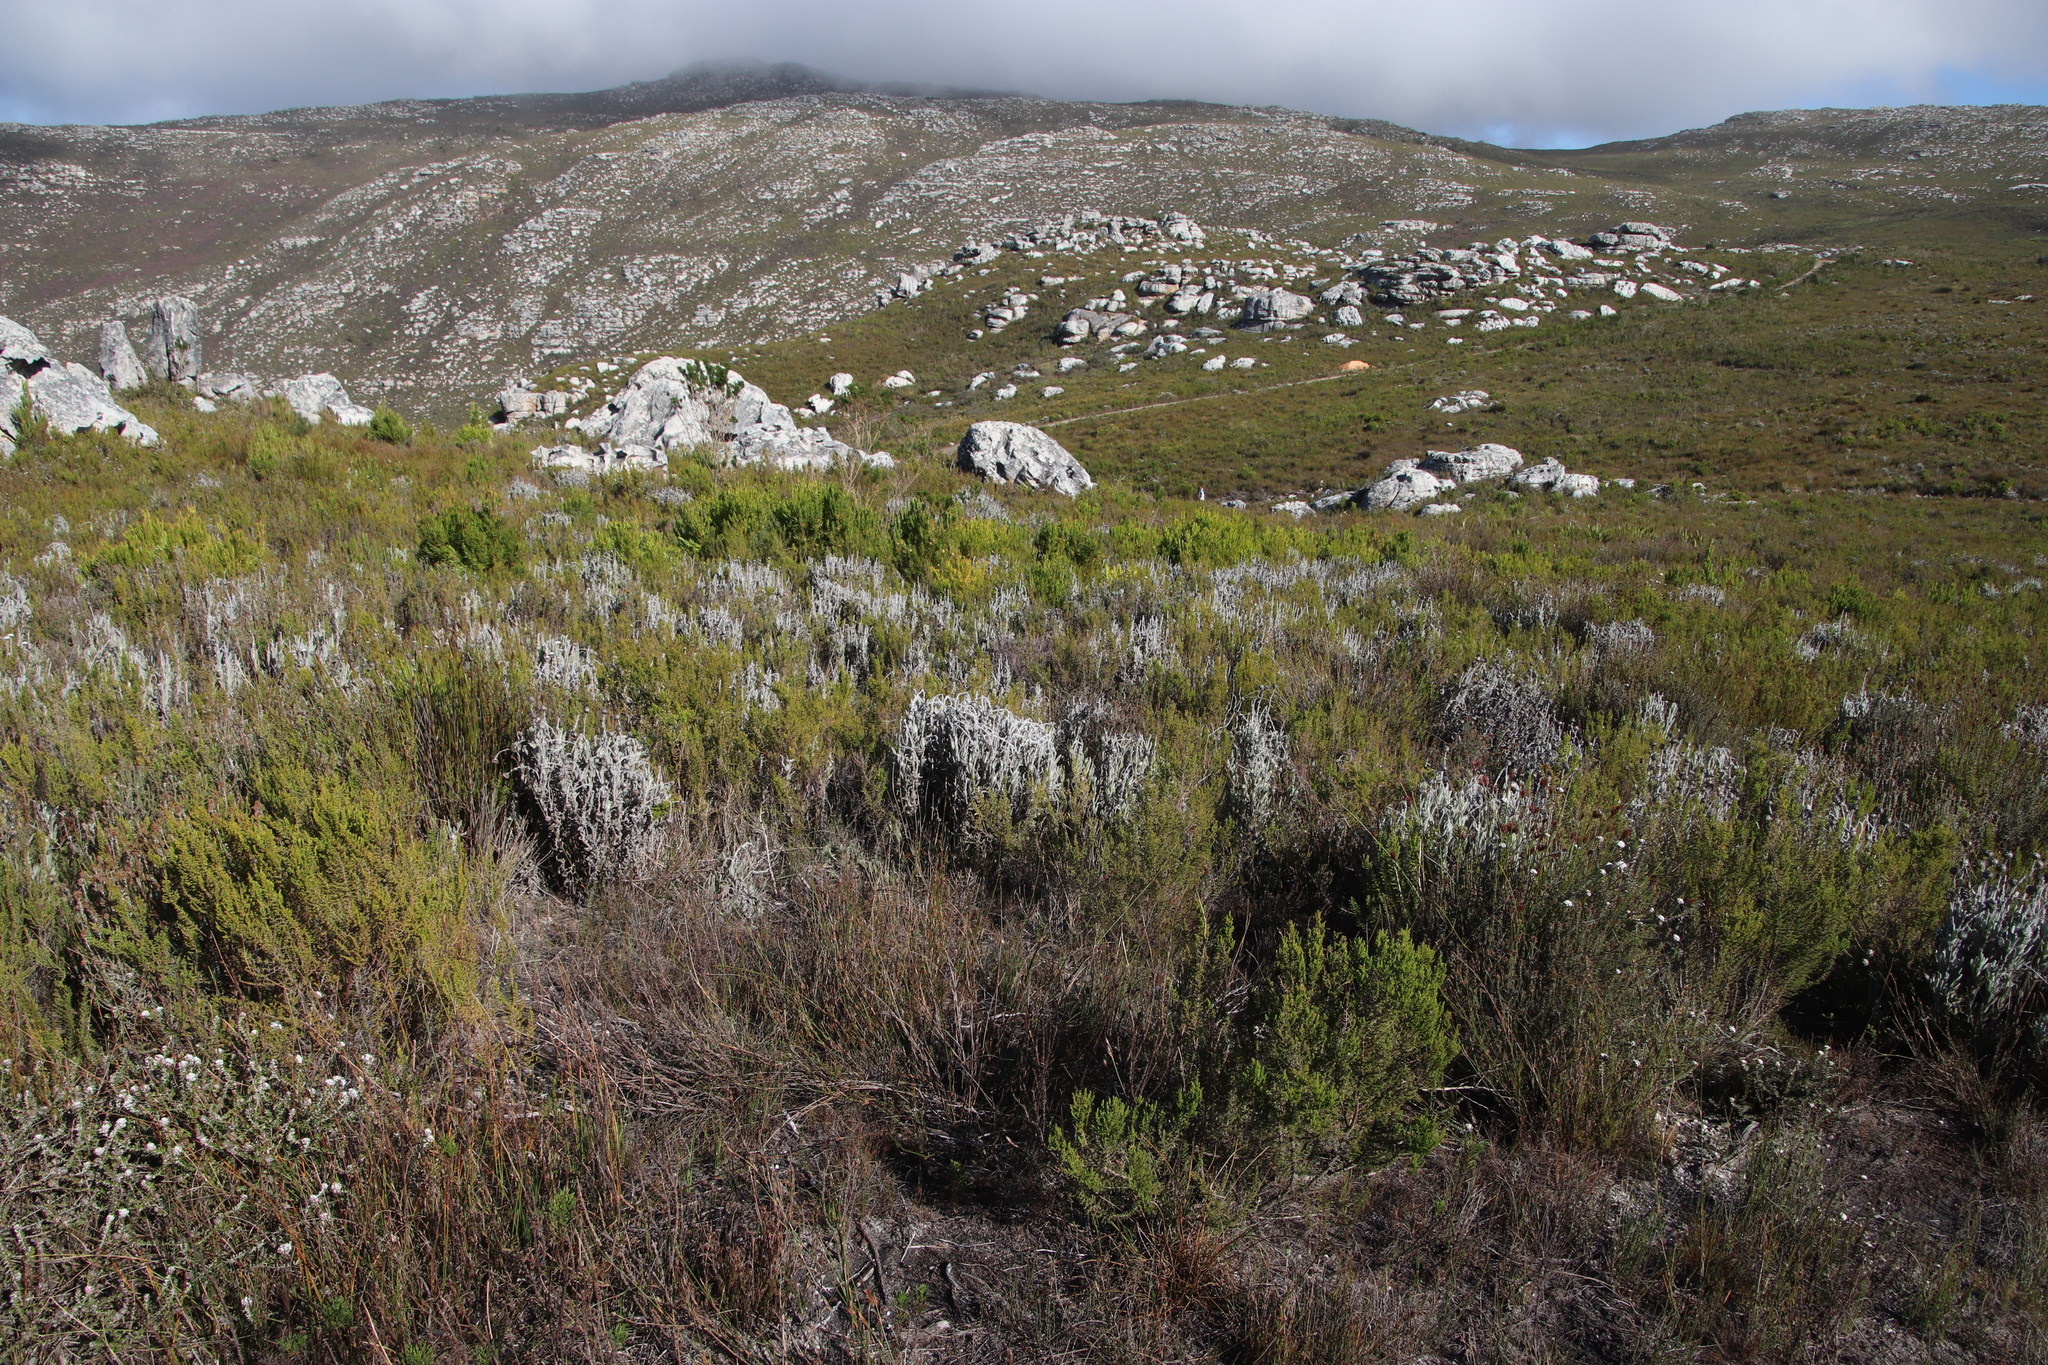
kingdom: Plantae
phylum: Tracheophyta
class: Magnoliopsida
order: Asterales
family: Asteraceae
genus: Syncarpha
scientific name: Syncarpha vestita
